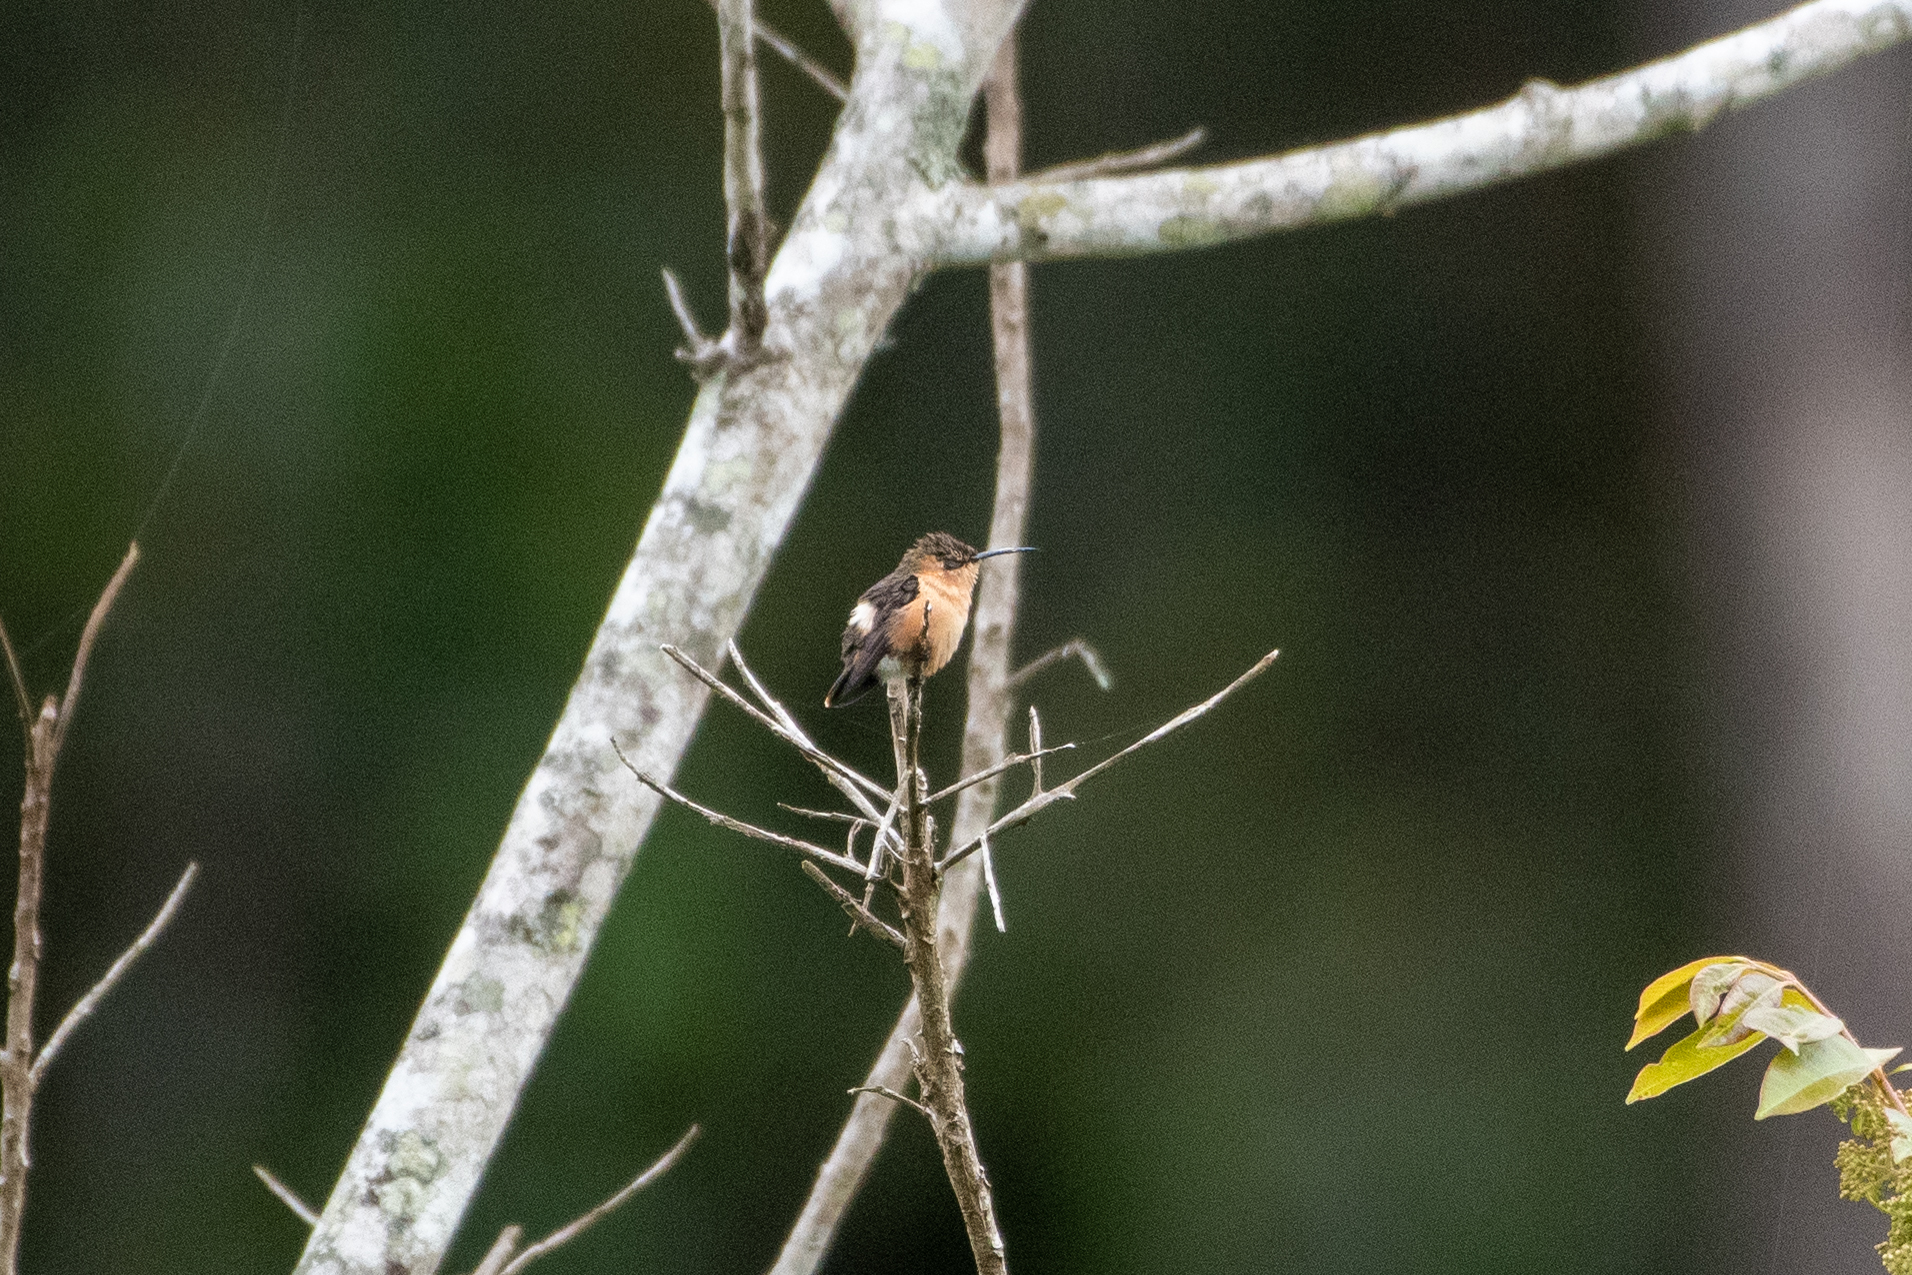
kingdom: Animalia
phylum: Chordata
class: Aves
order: Apodiformes
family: Trochilidae
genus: Tilmatura
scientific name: Tilmatura dupontii
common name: Sparkling-tailed woodstar
